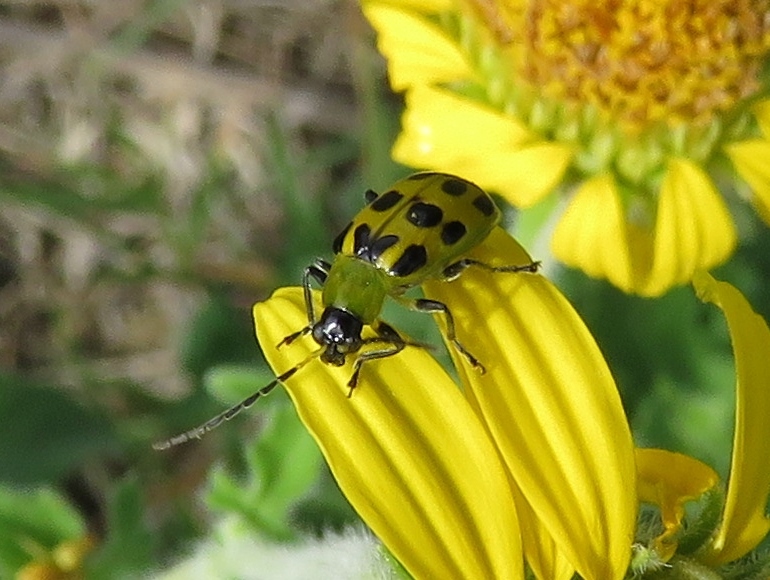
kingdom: Animalia
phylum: Arthropoda
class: Insecta
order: Coleoptera
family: Chrysomelidae
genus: Diabrotica
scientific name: Diabrotica undecimpunctata
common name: Spotted cucumber beetle
